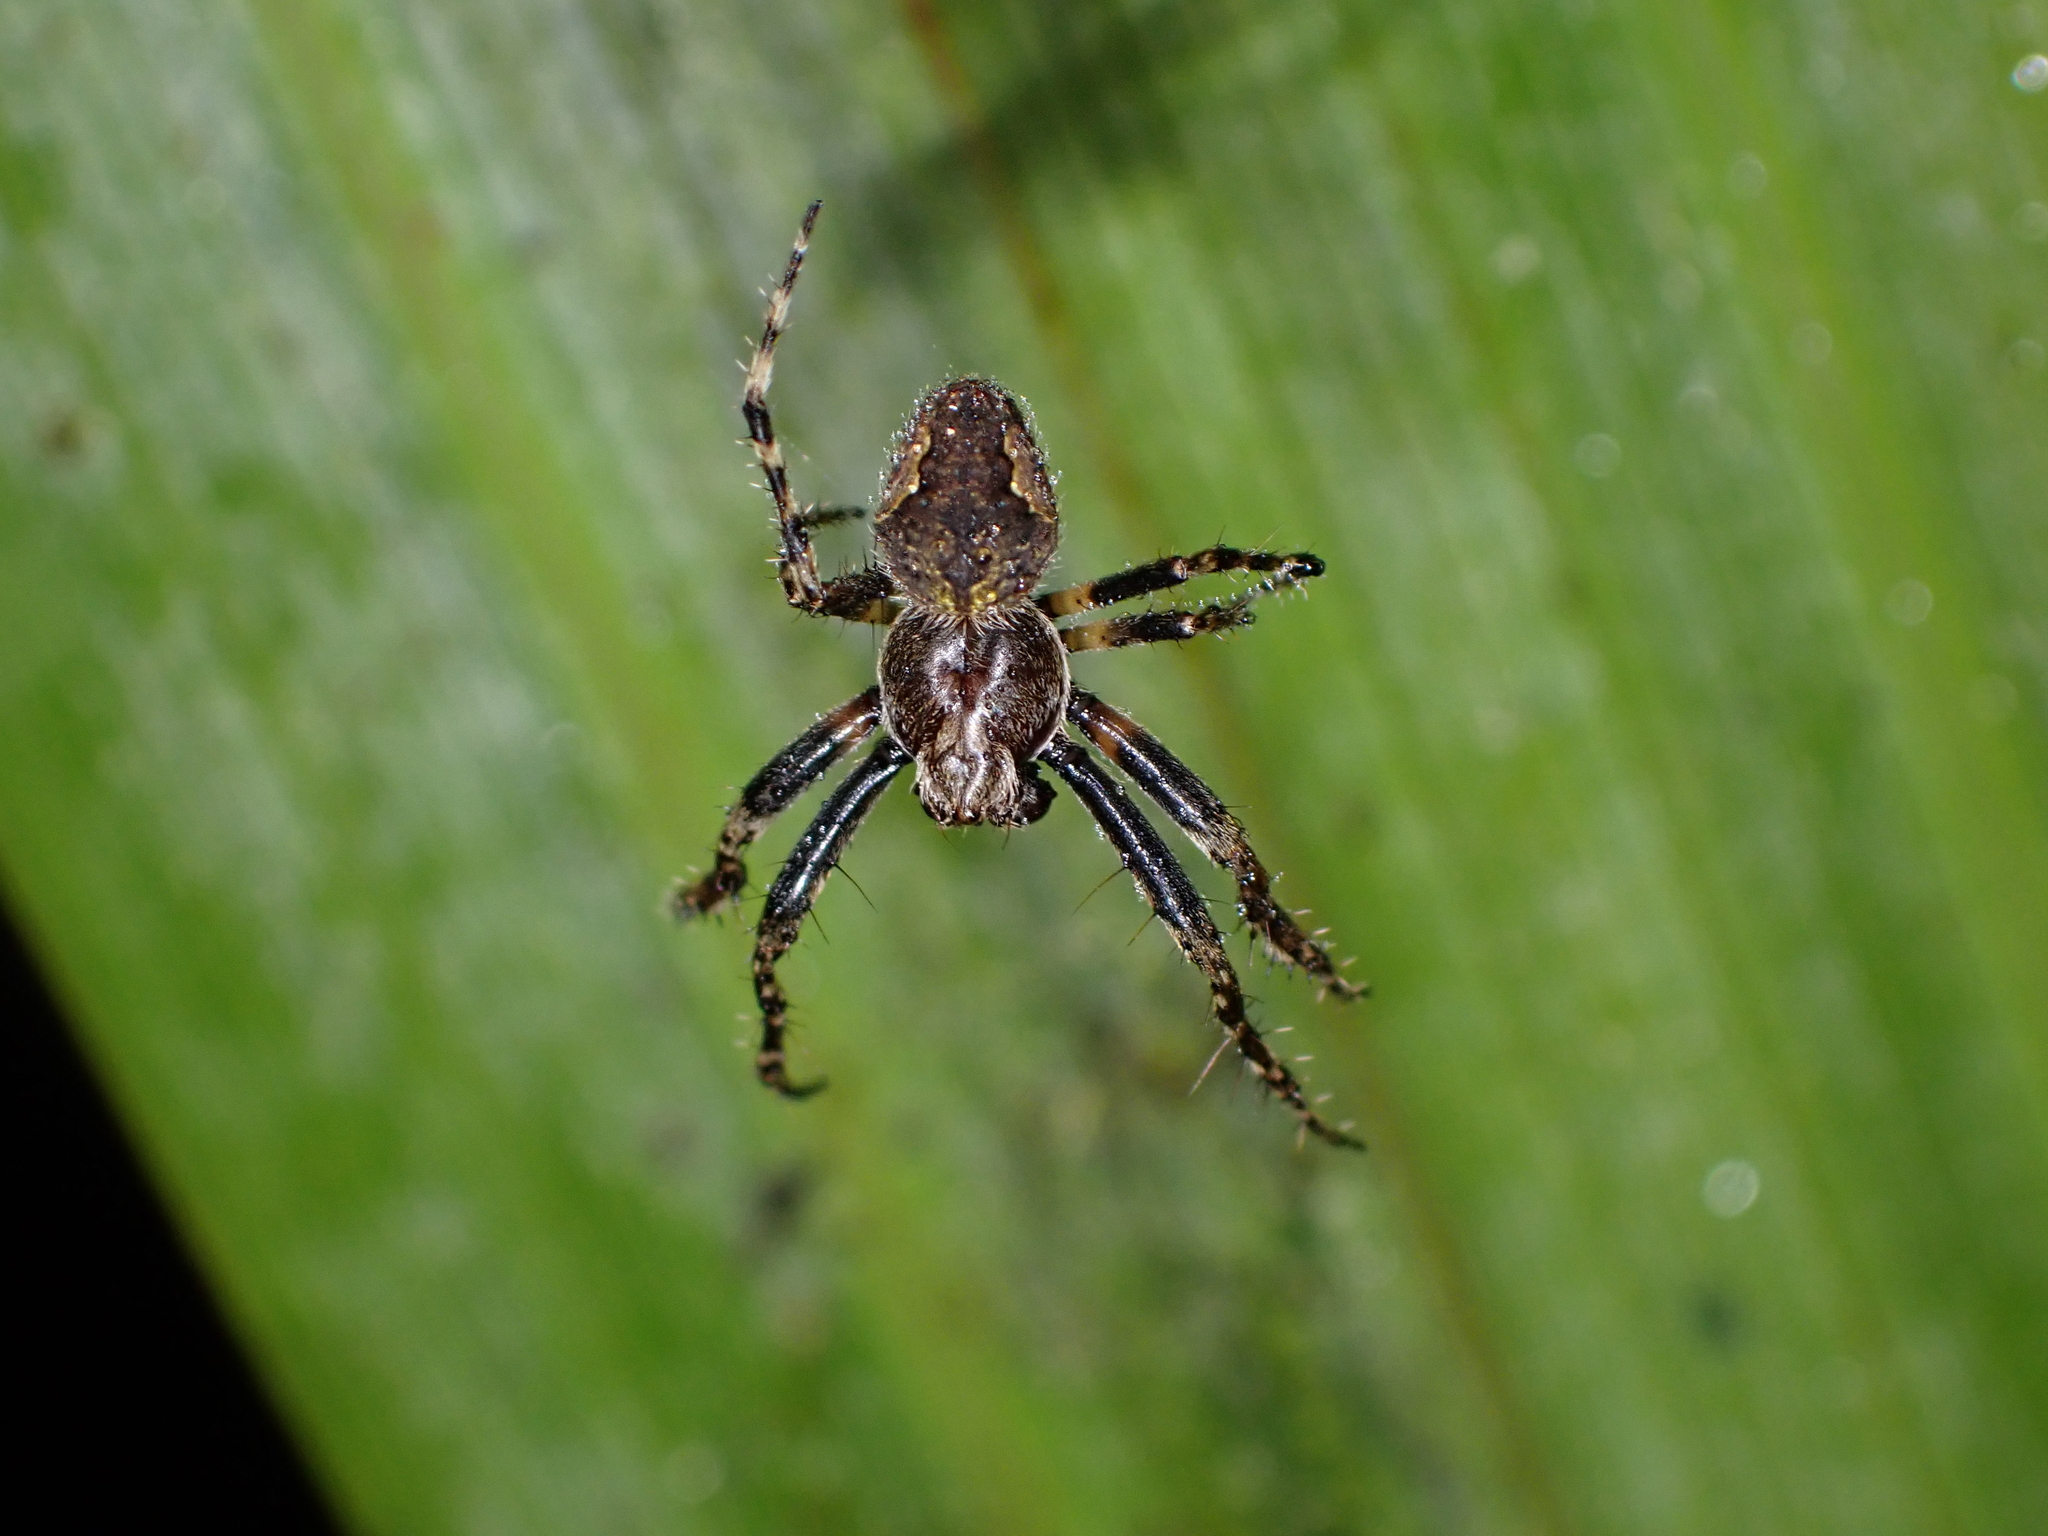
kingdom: Animalia
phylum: Arthropoda
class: Arachnida
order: Araneae
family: Araneidae
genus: Eriophora
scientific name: Eriophora pustulosa
